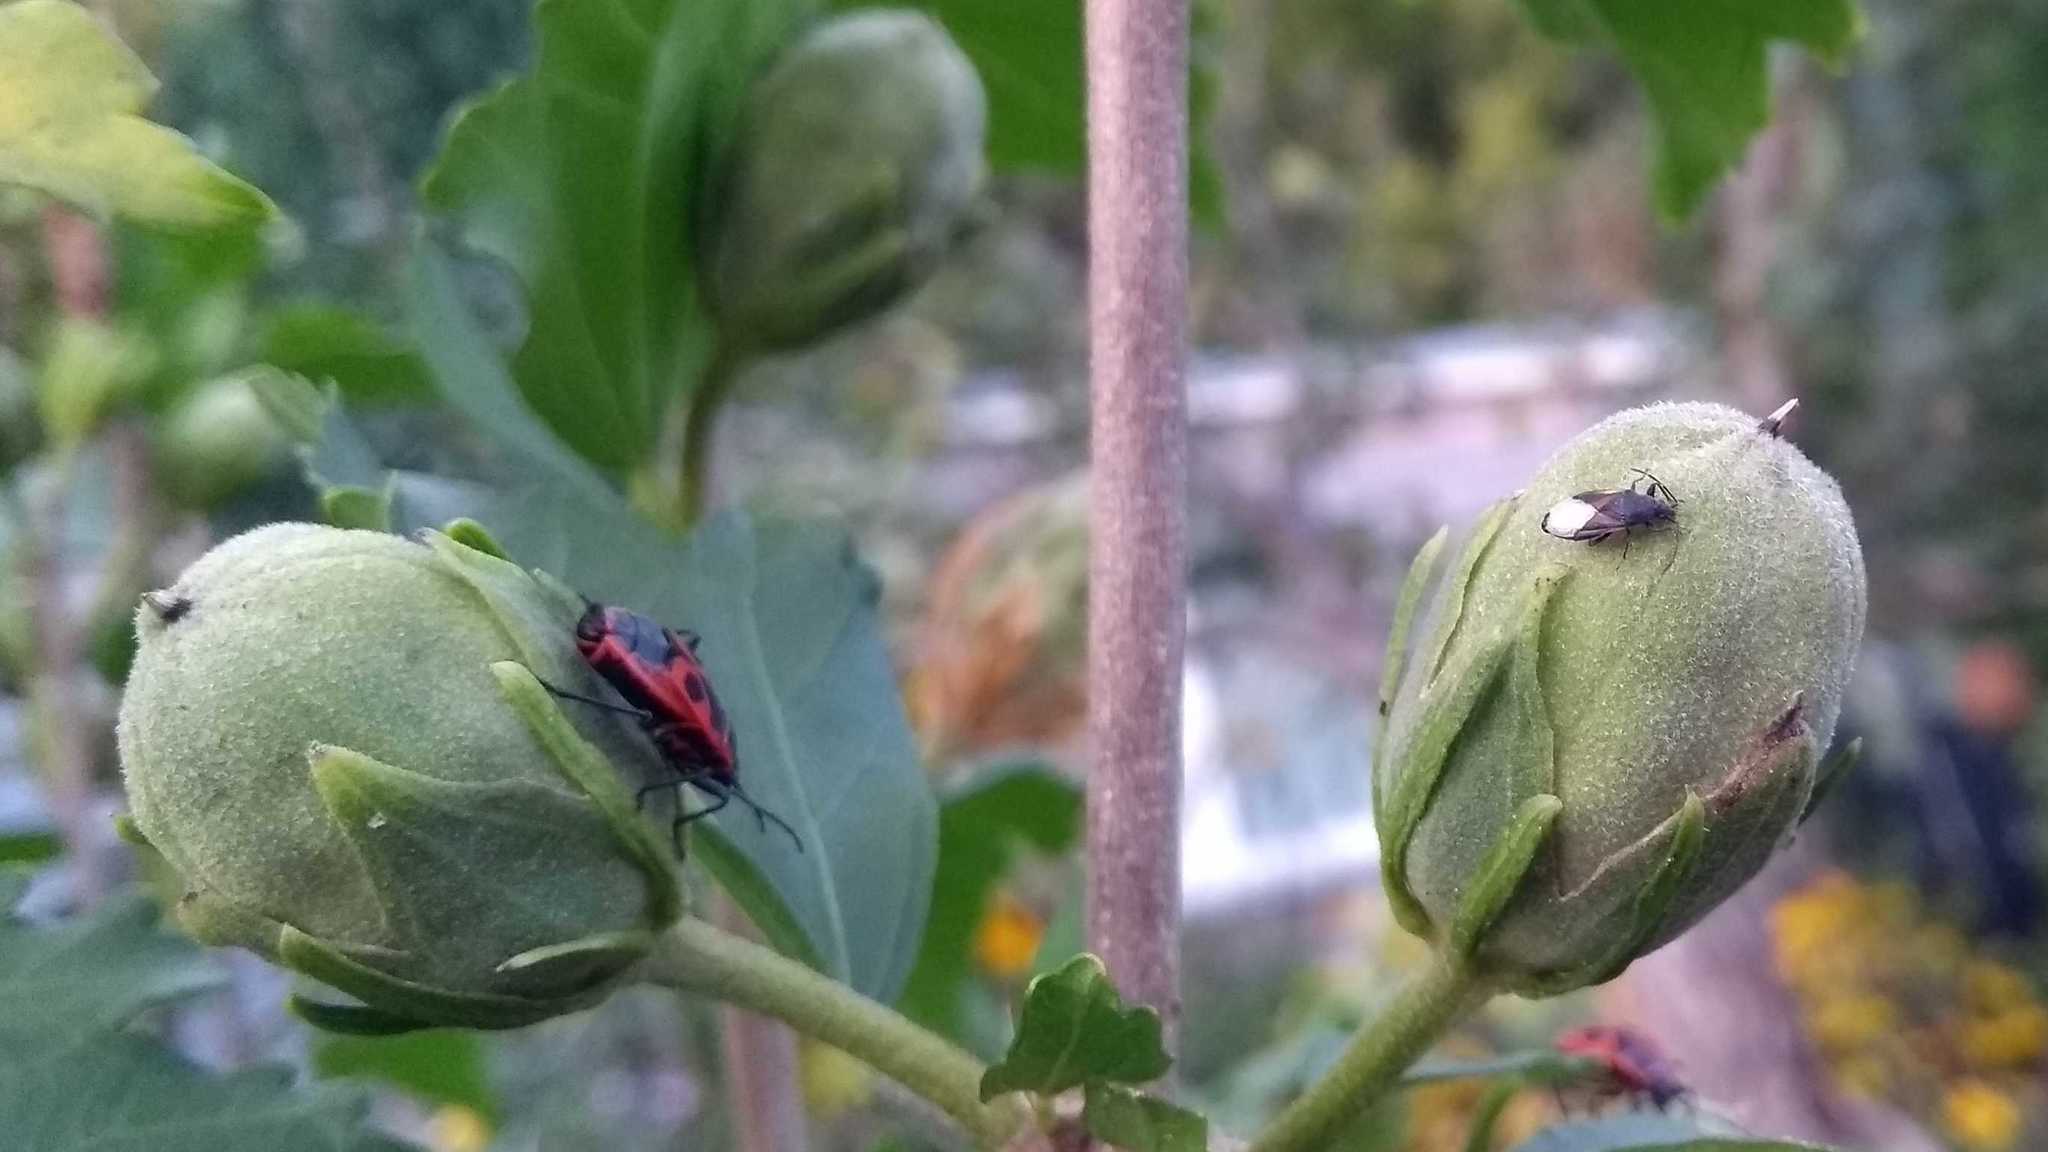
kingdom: Animalia
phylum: Arthropoda
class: Insecta
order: Hemiptera
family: Pyrrhocoridae
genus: Pyrrhocoris
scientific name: Pyrrhocoris apterus
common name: Firebug
